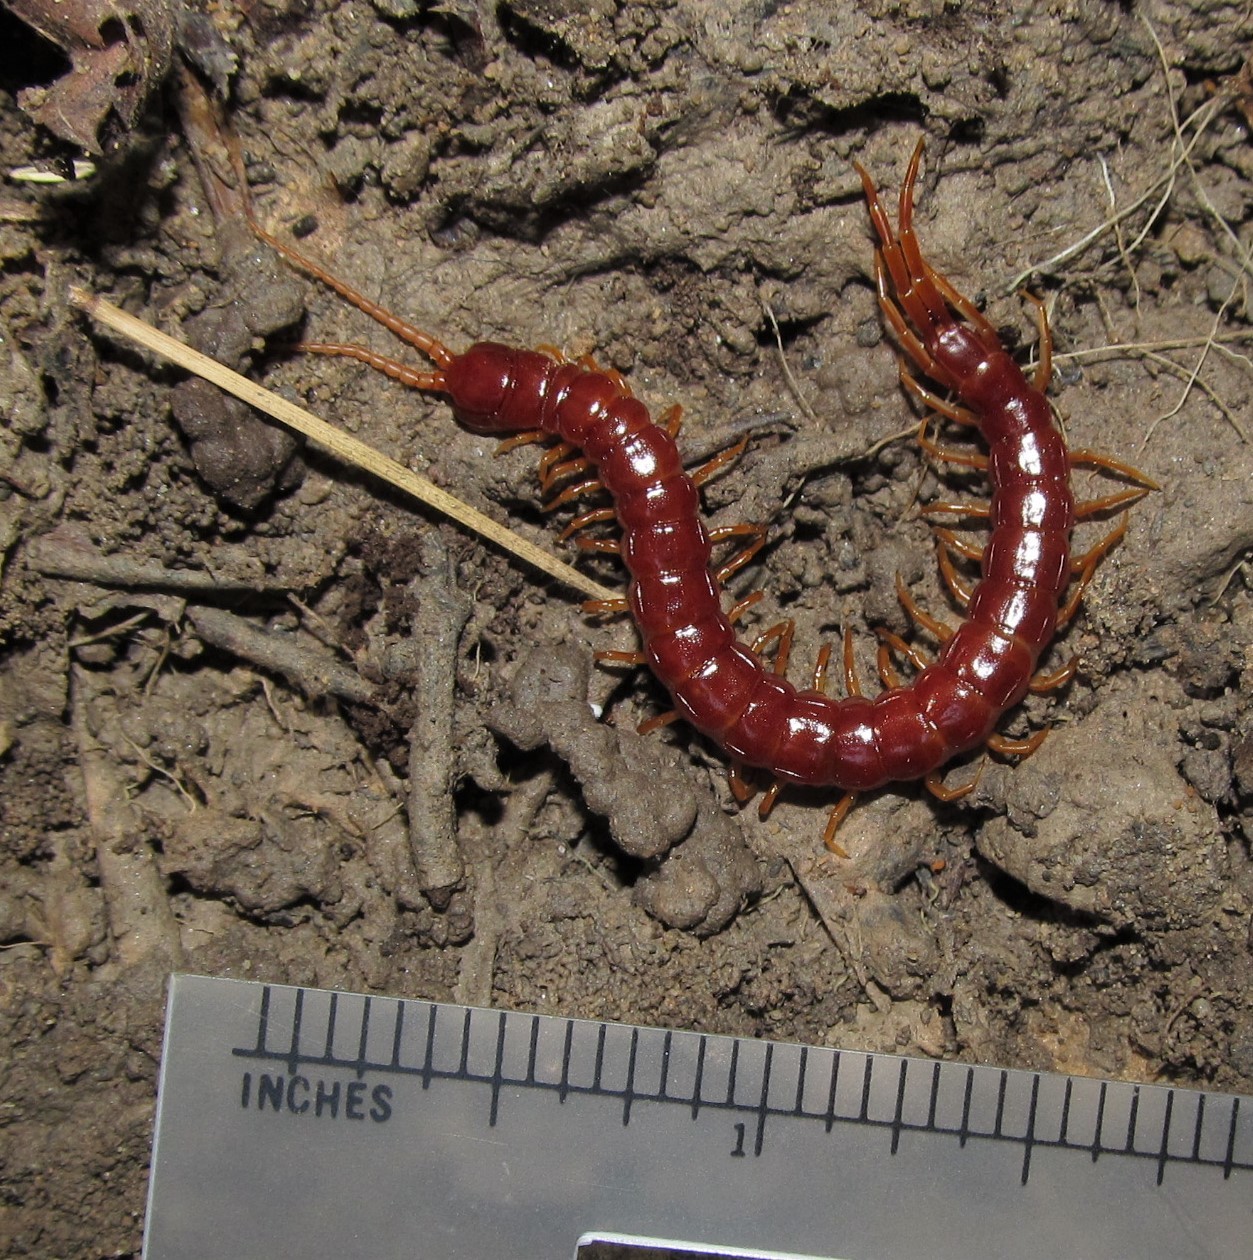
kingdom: Animalia
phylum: Arthropoda
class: Chilopoda
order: Scolopendromorpha
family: Scolopocryptopidae
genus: Scolopocryptops
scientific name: Scolopocryptops sexspinosus
